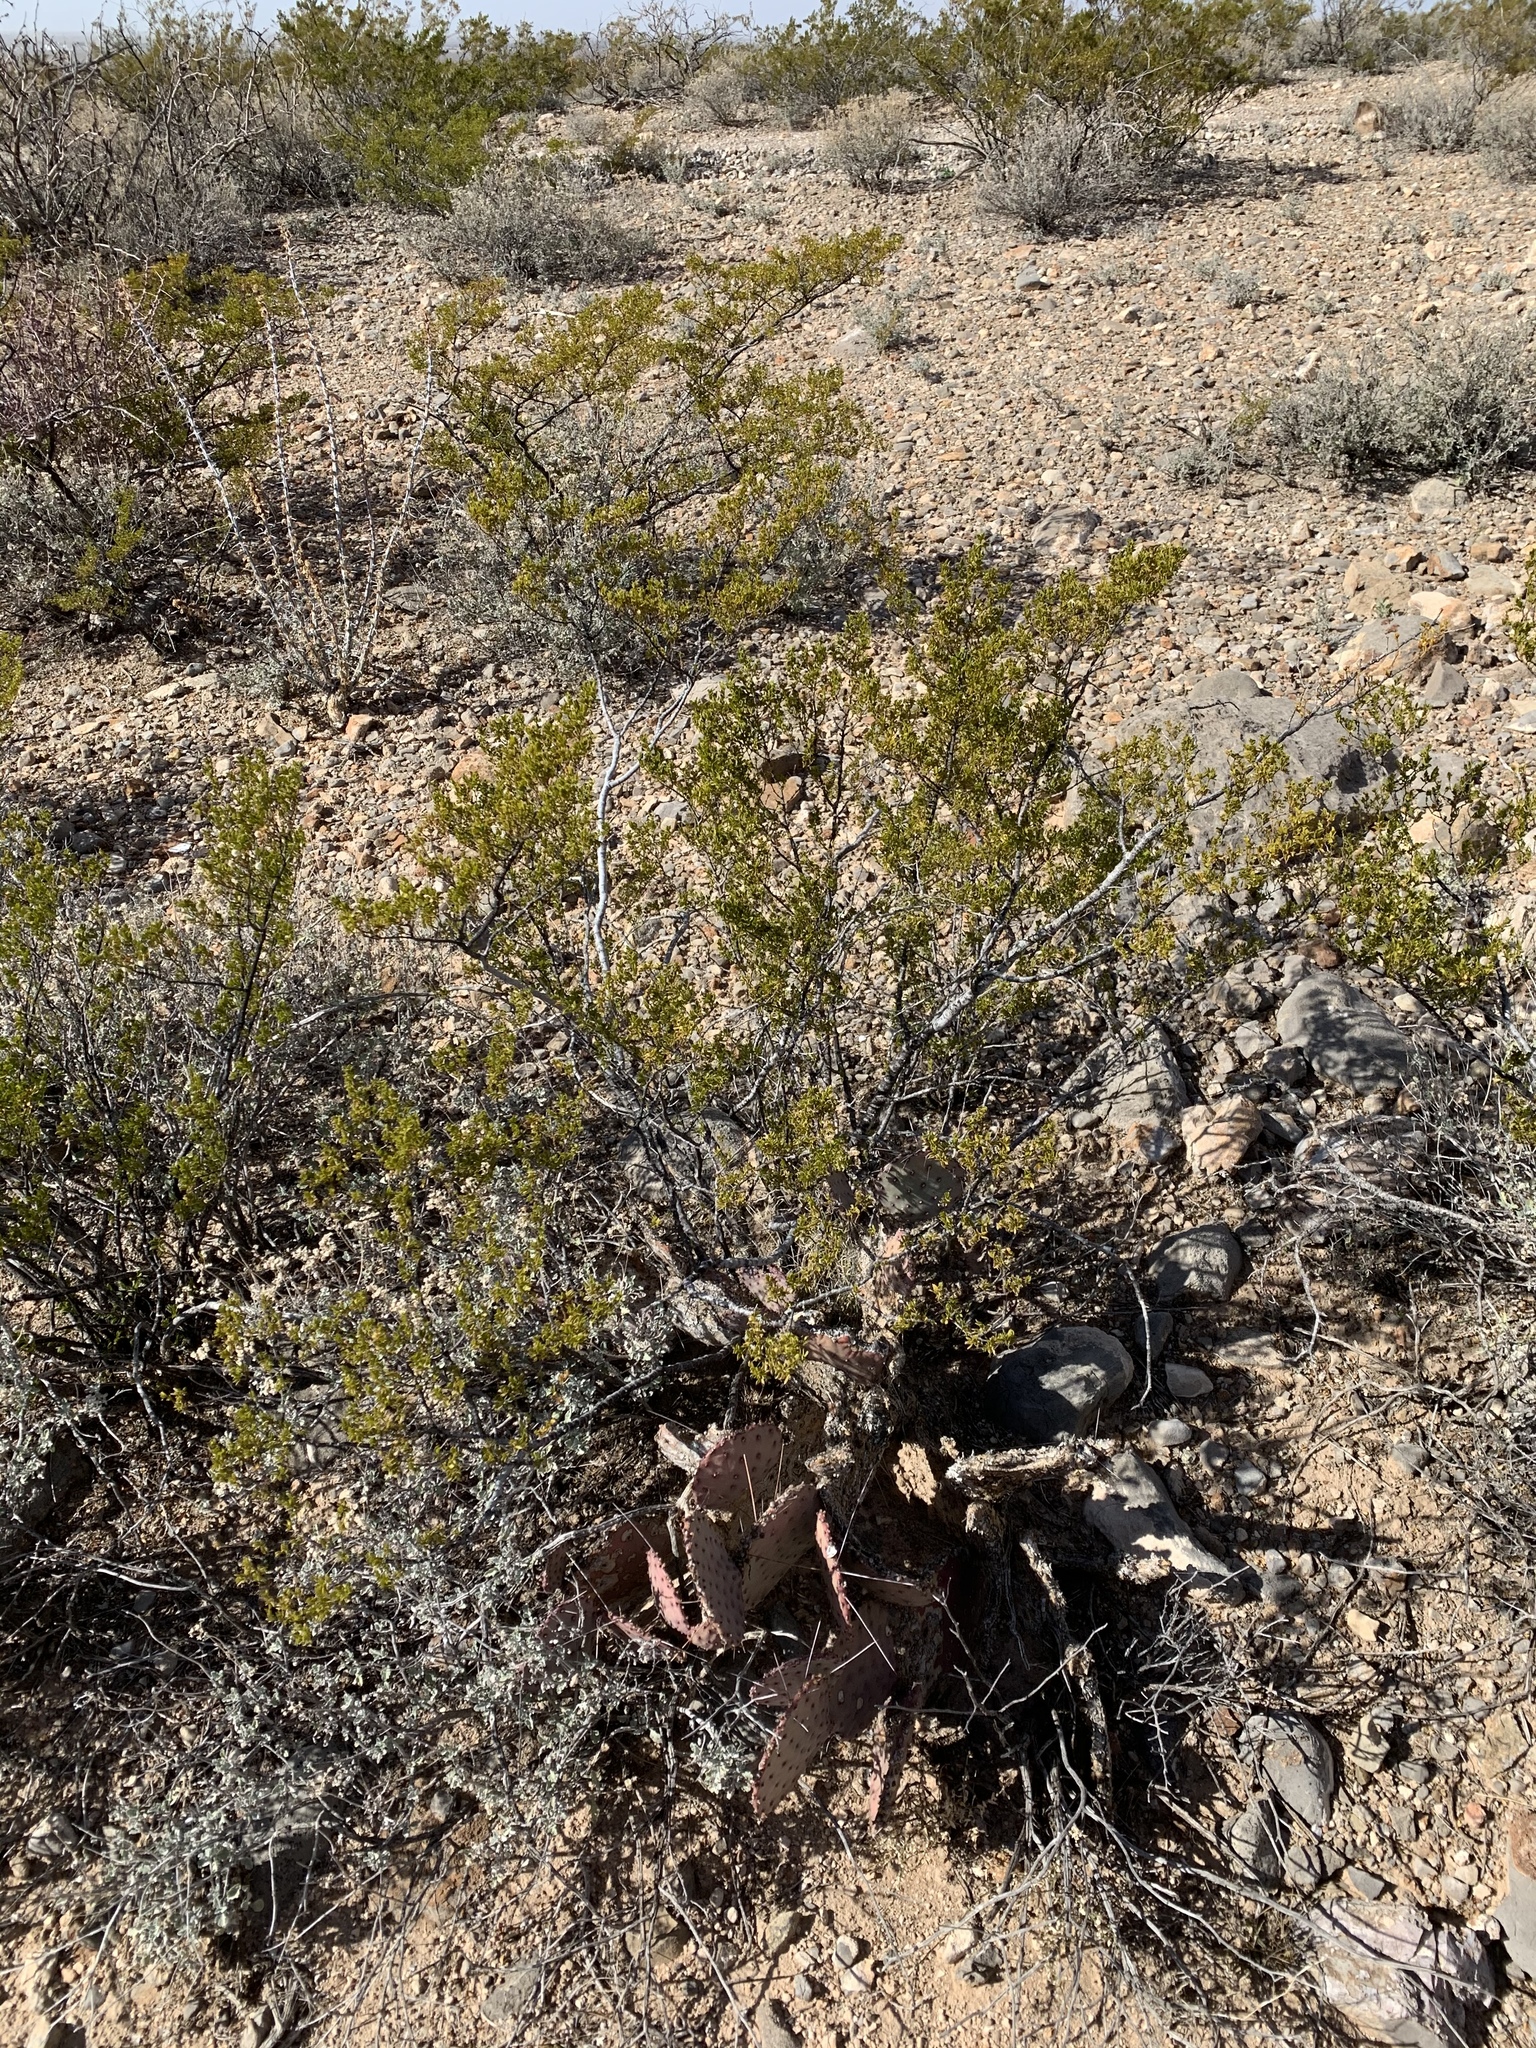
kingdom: Plantae
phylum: Tracheophyta
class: Magnoliopsida
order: Zygophyllales
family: Zygophyllaceae
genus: Larrea
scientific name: Larrea tridentata
